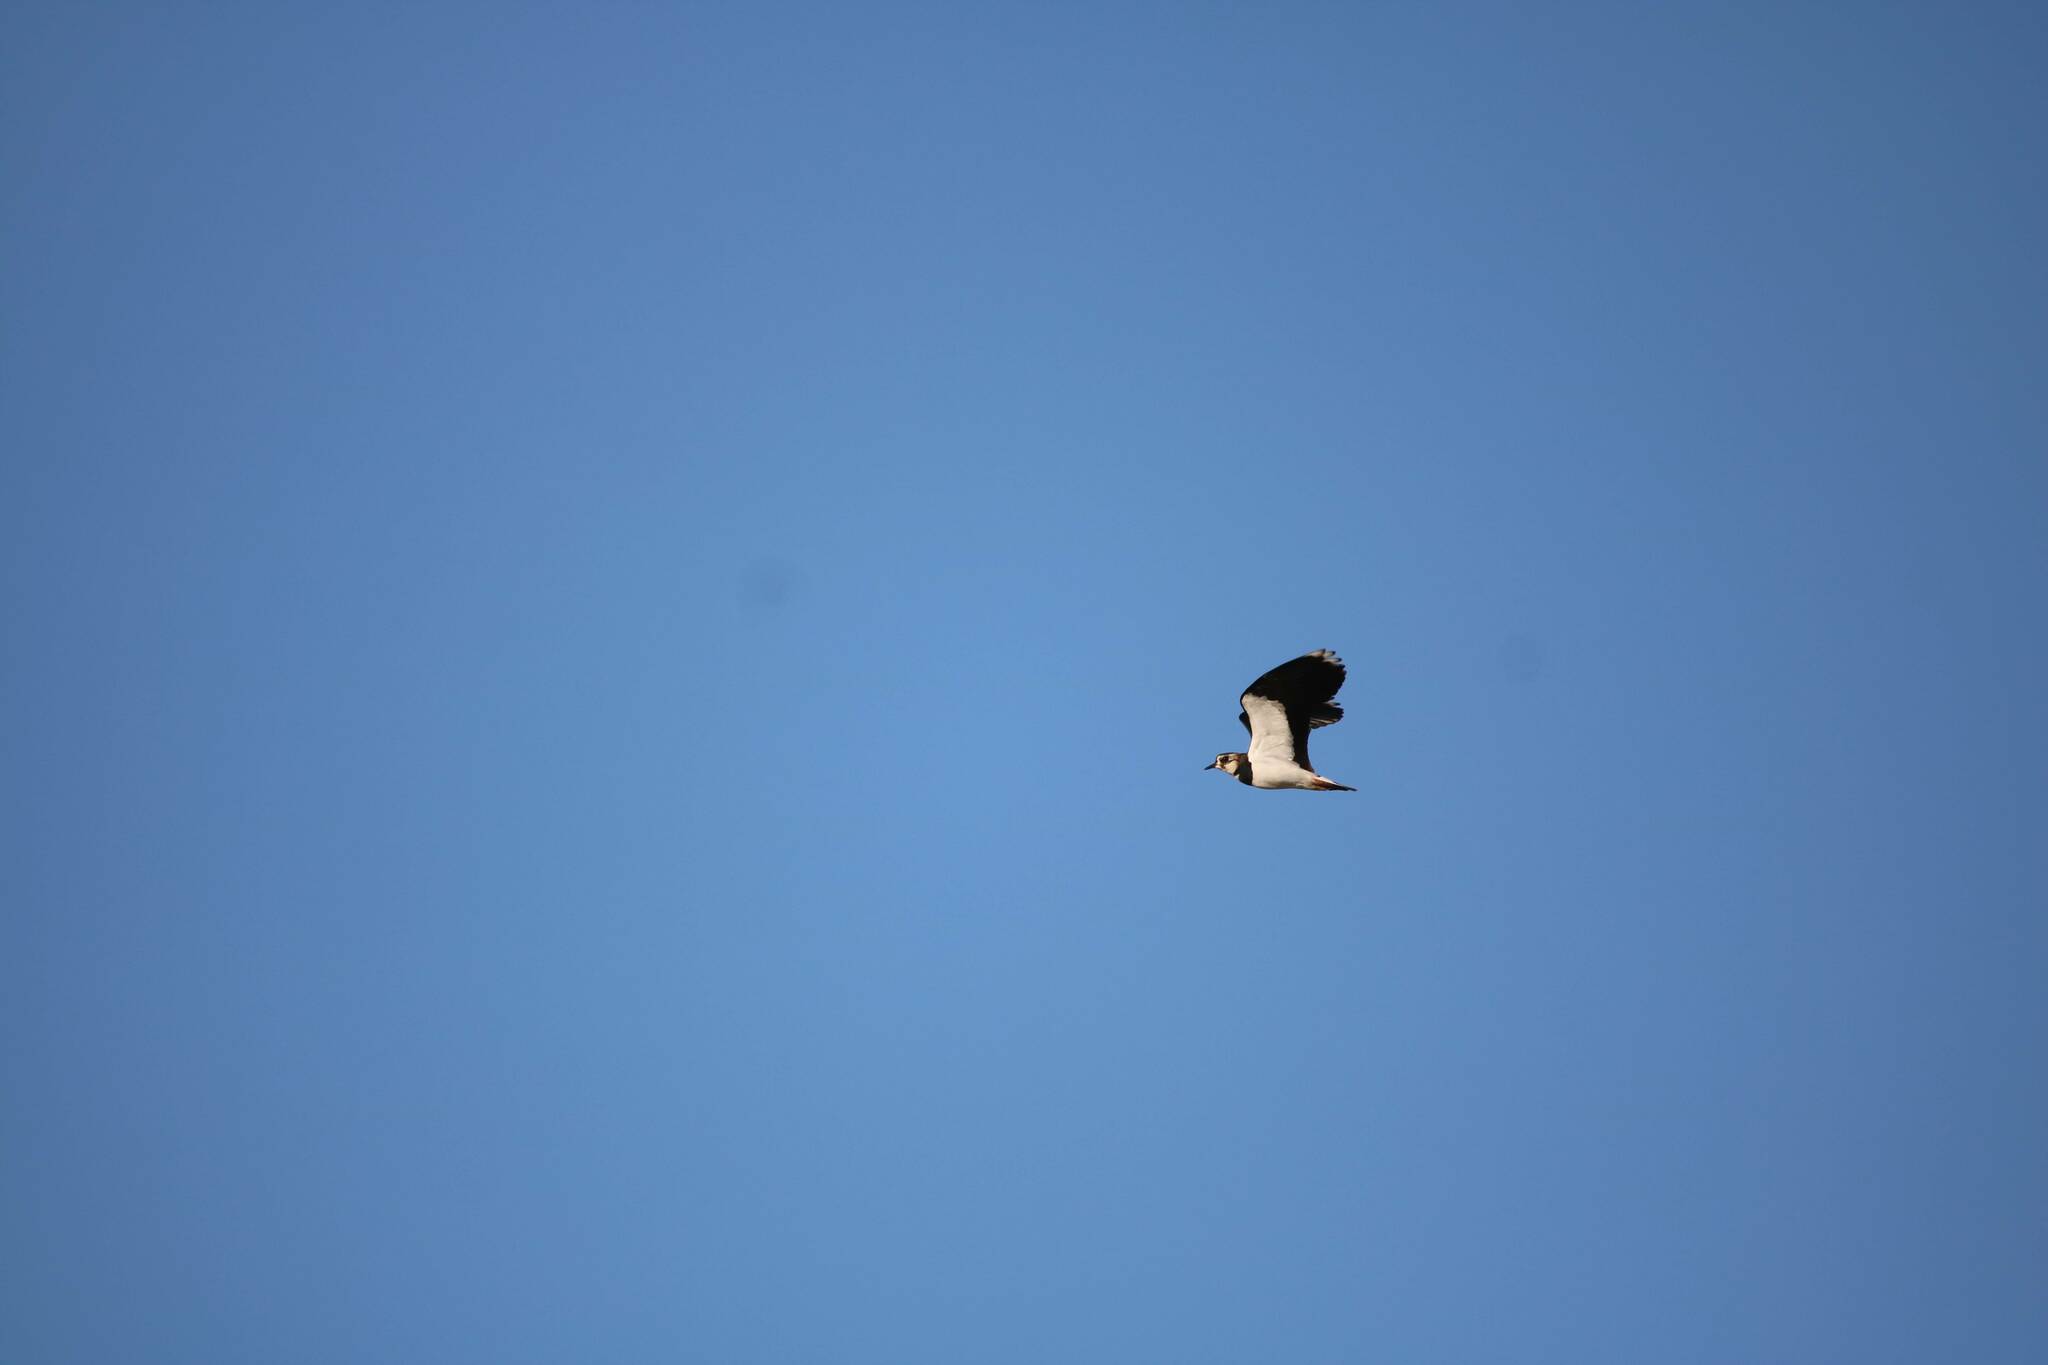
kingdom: Animalia
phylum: Chordata
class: Aves
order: Charadriiformes
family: Charadriidae
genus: Vanellus
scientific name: Vanellus vanellus
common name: Northern lapwing
